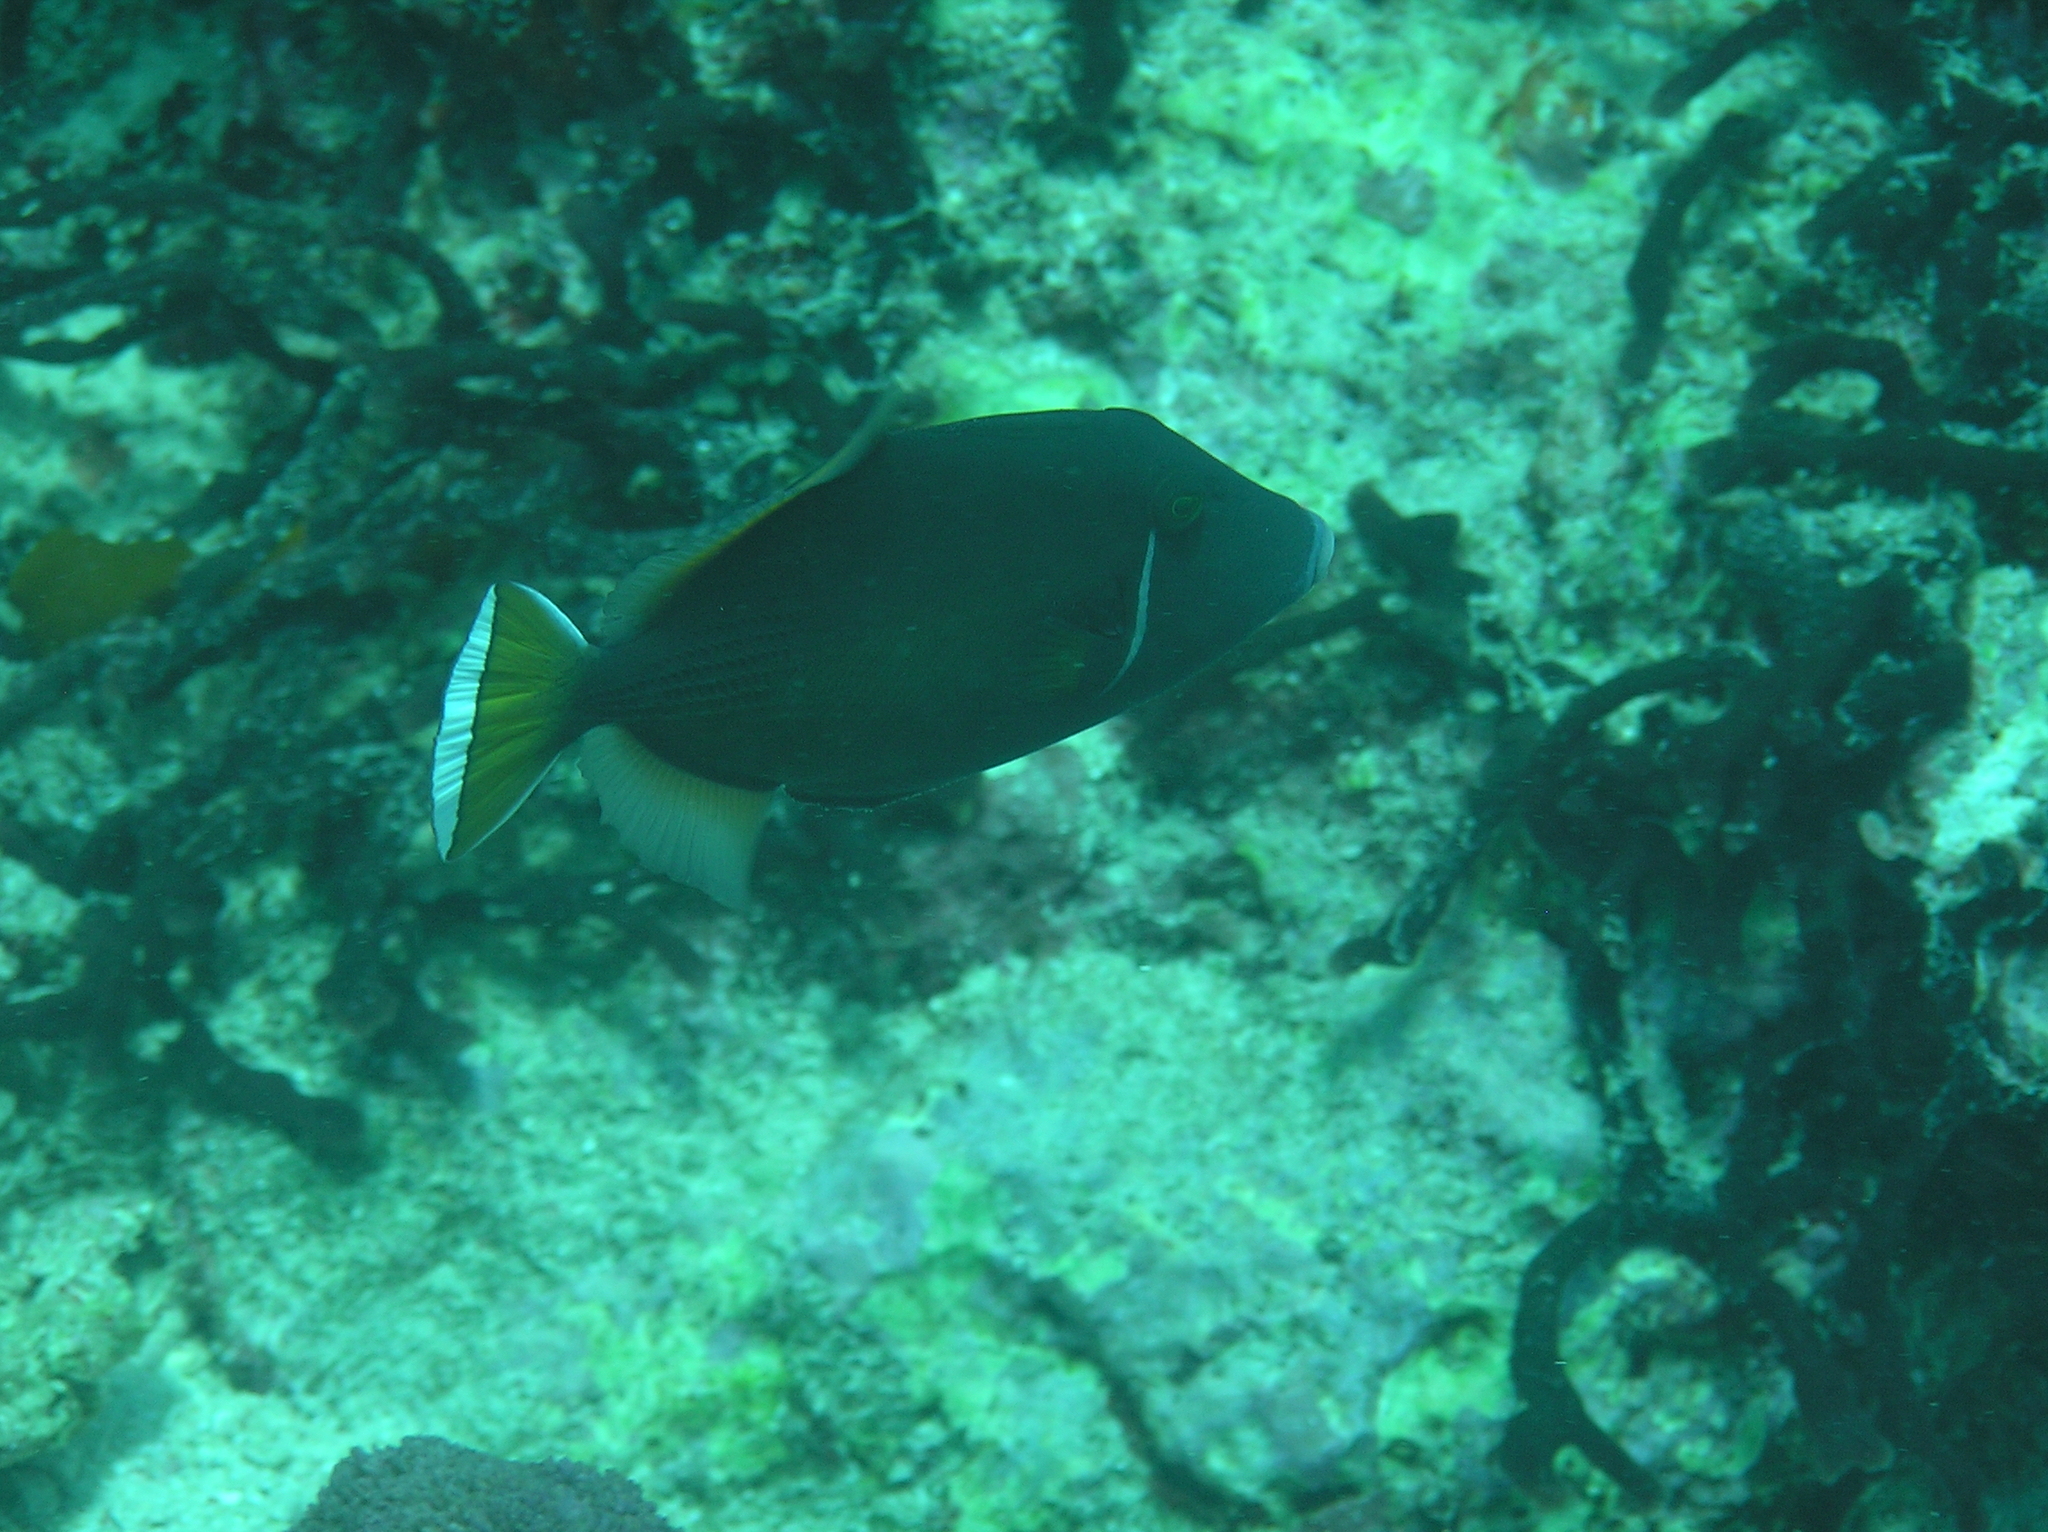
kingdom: Animalia
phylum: Chordata
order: Tetraodontiformes
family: Balistidae
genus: Sufflamen
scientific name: Sufflamen chrysopterum
